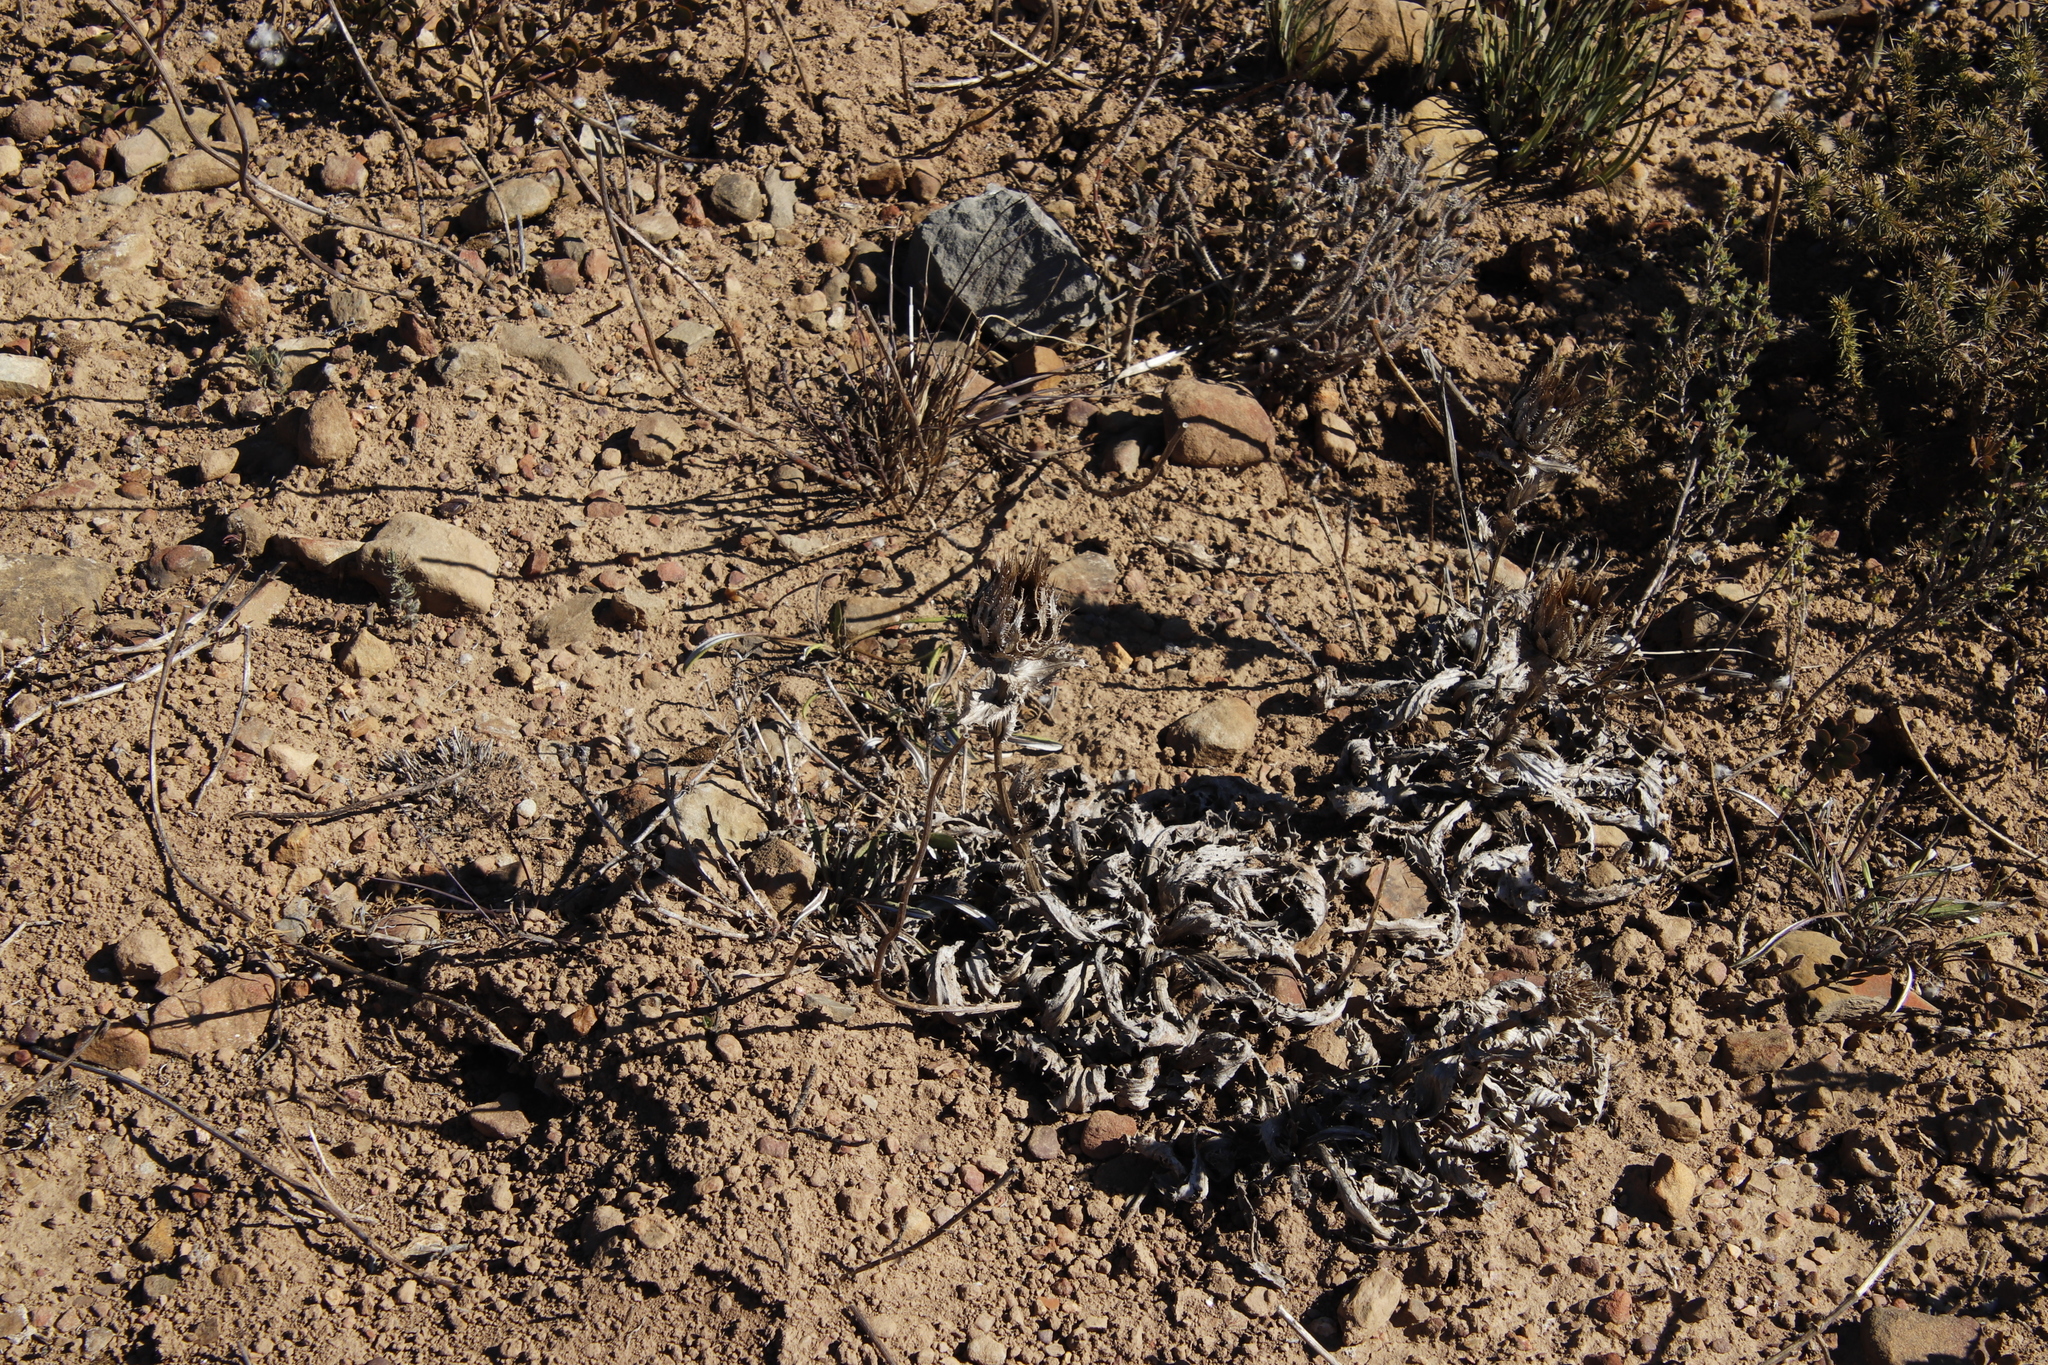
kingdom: Plantae
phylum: Tracheophyta
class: Magnoliopsida
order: Asterales
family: Asteraceae
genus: Berkheya
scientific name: Berkheya armata
